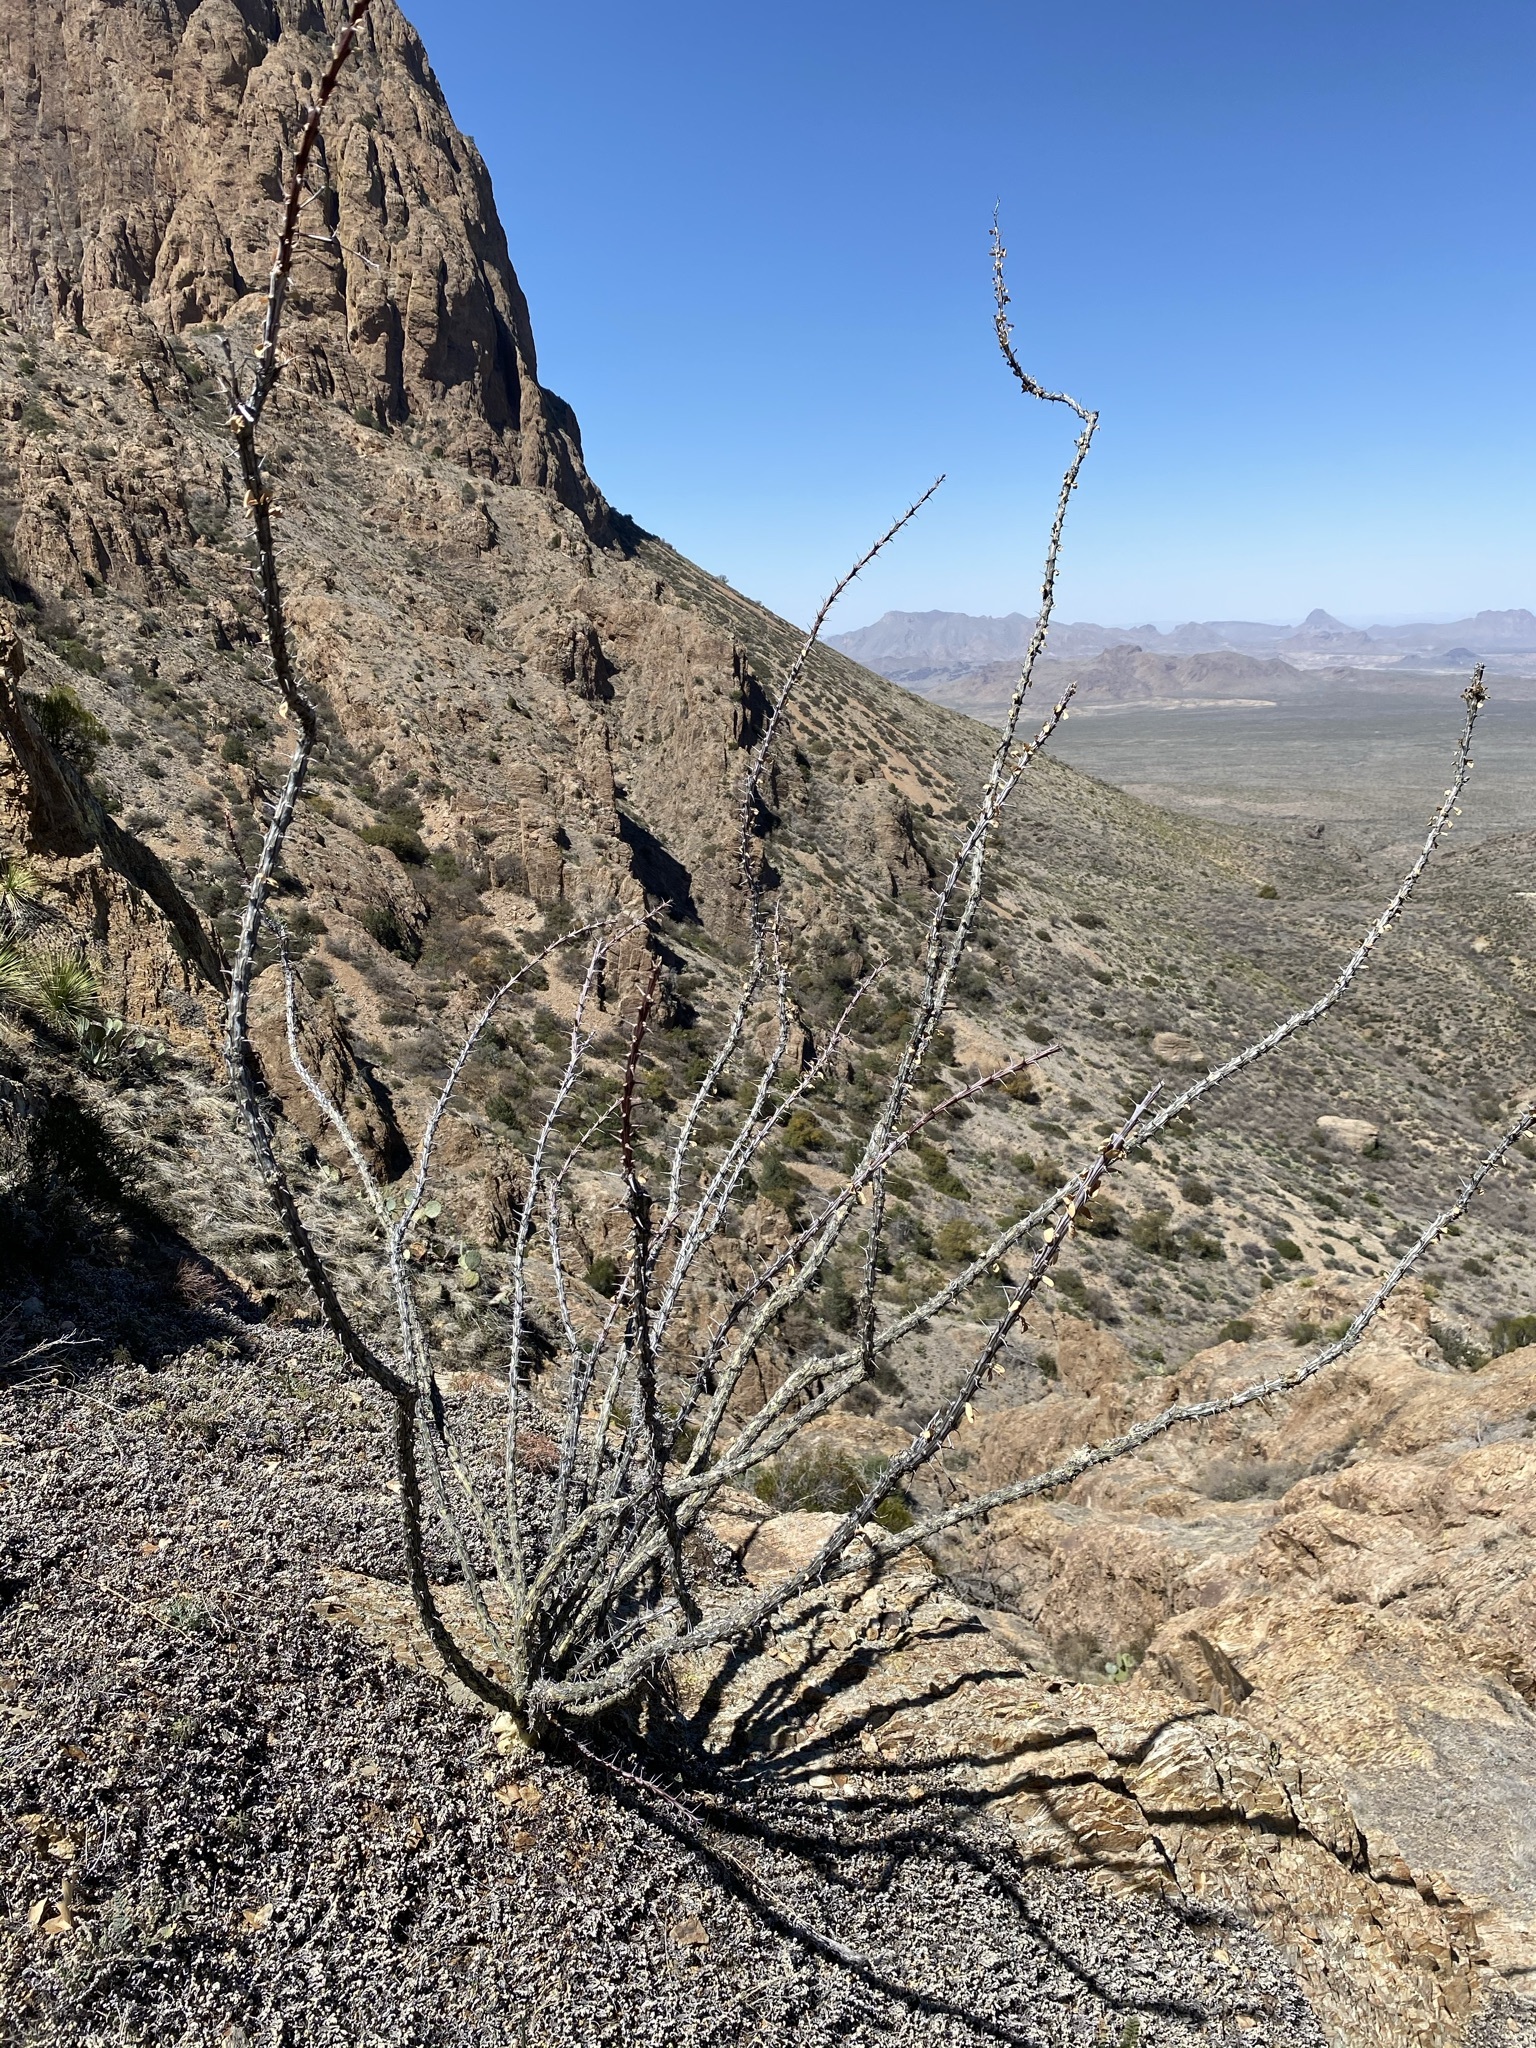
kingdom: Plantae
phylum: Tracheophyta
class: Magnoliopsida
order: Ericales
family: Fouquieriaceae
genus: Fouquieria
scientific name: Fouquieria splendens
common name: Vine-cactus
